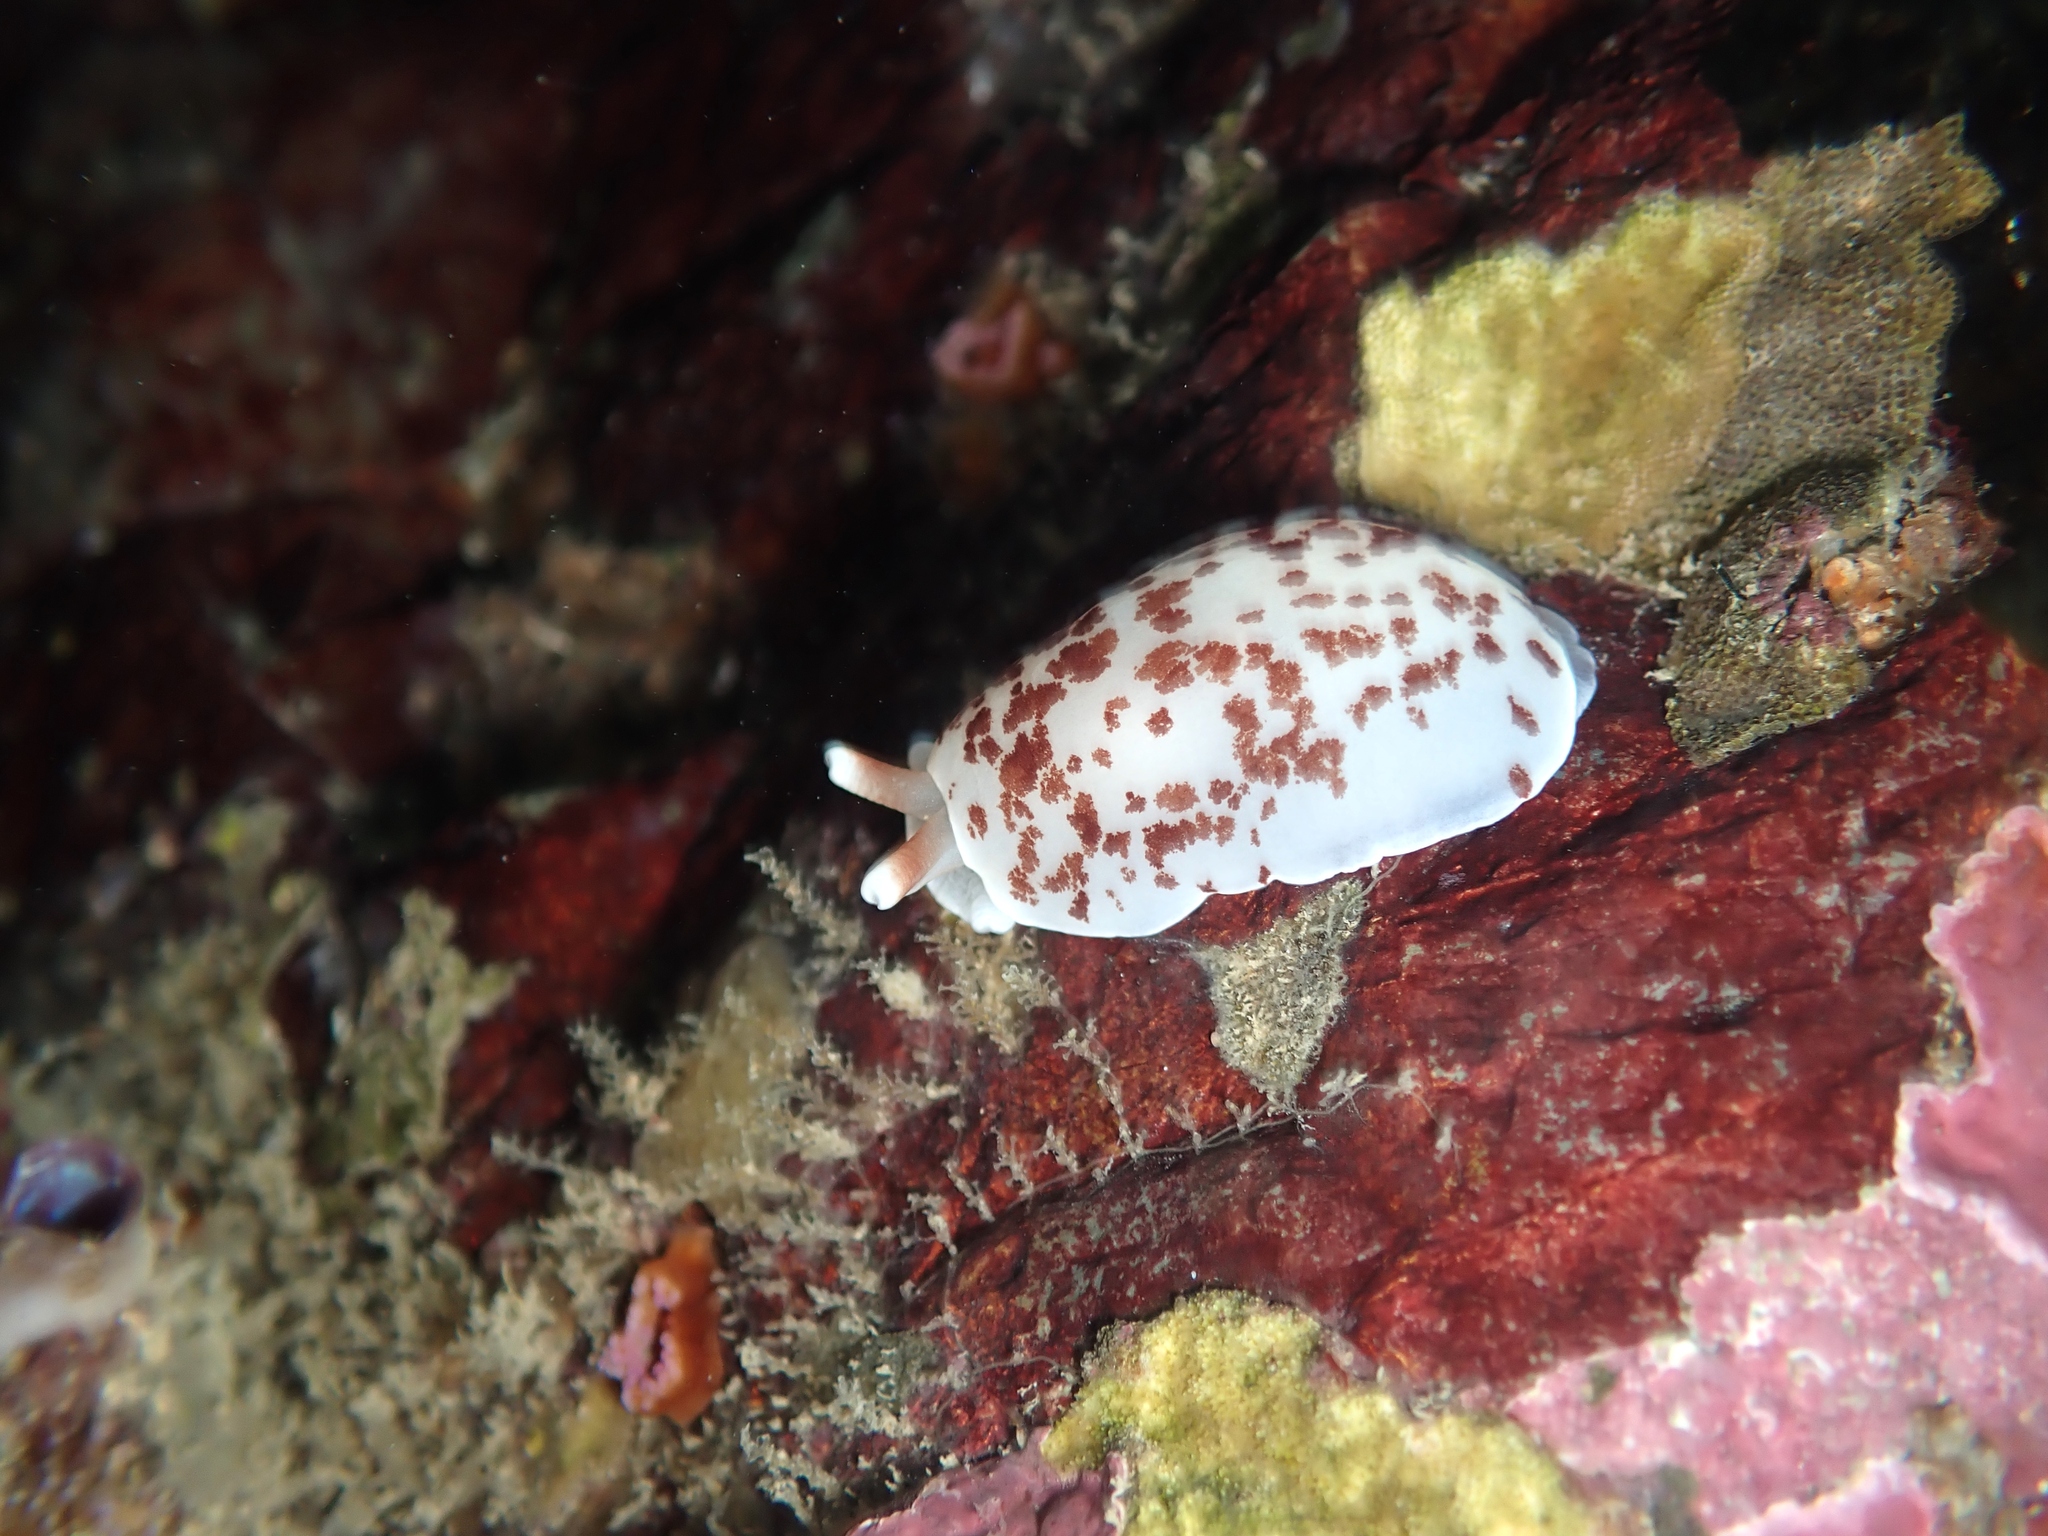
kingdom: Animalia
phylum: Mollusca
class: Gastropoda
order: Pleurobranchida
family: Pleurobranchidae
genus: Berthella
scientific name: Berthella ornata
